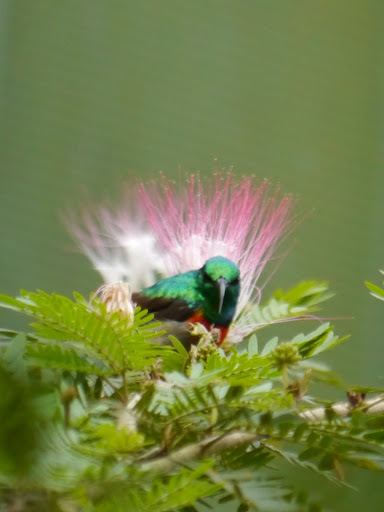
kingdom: Animalia
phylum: Chordata
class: Aves
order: Passeriformes
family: Nectariniidae
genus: Cinnyris
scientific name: Cinnyris chloropygius
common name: Olive-bellied sunbird
